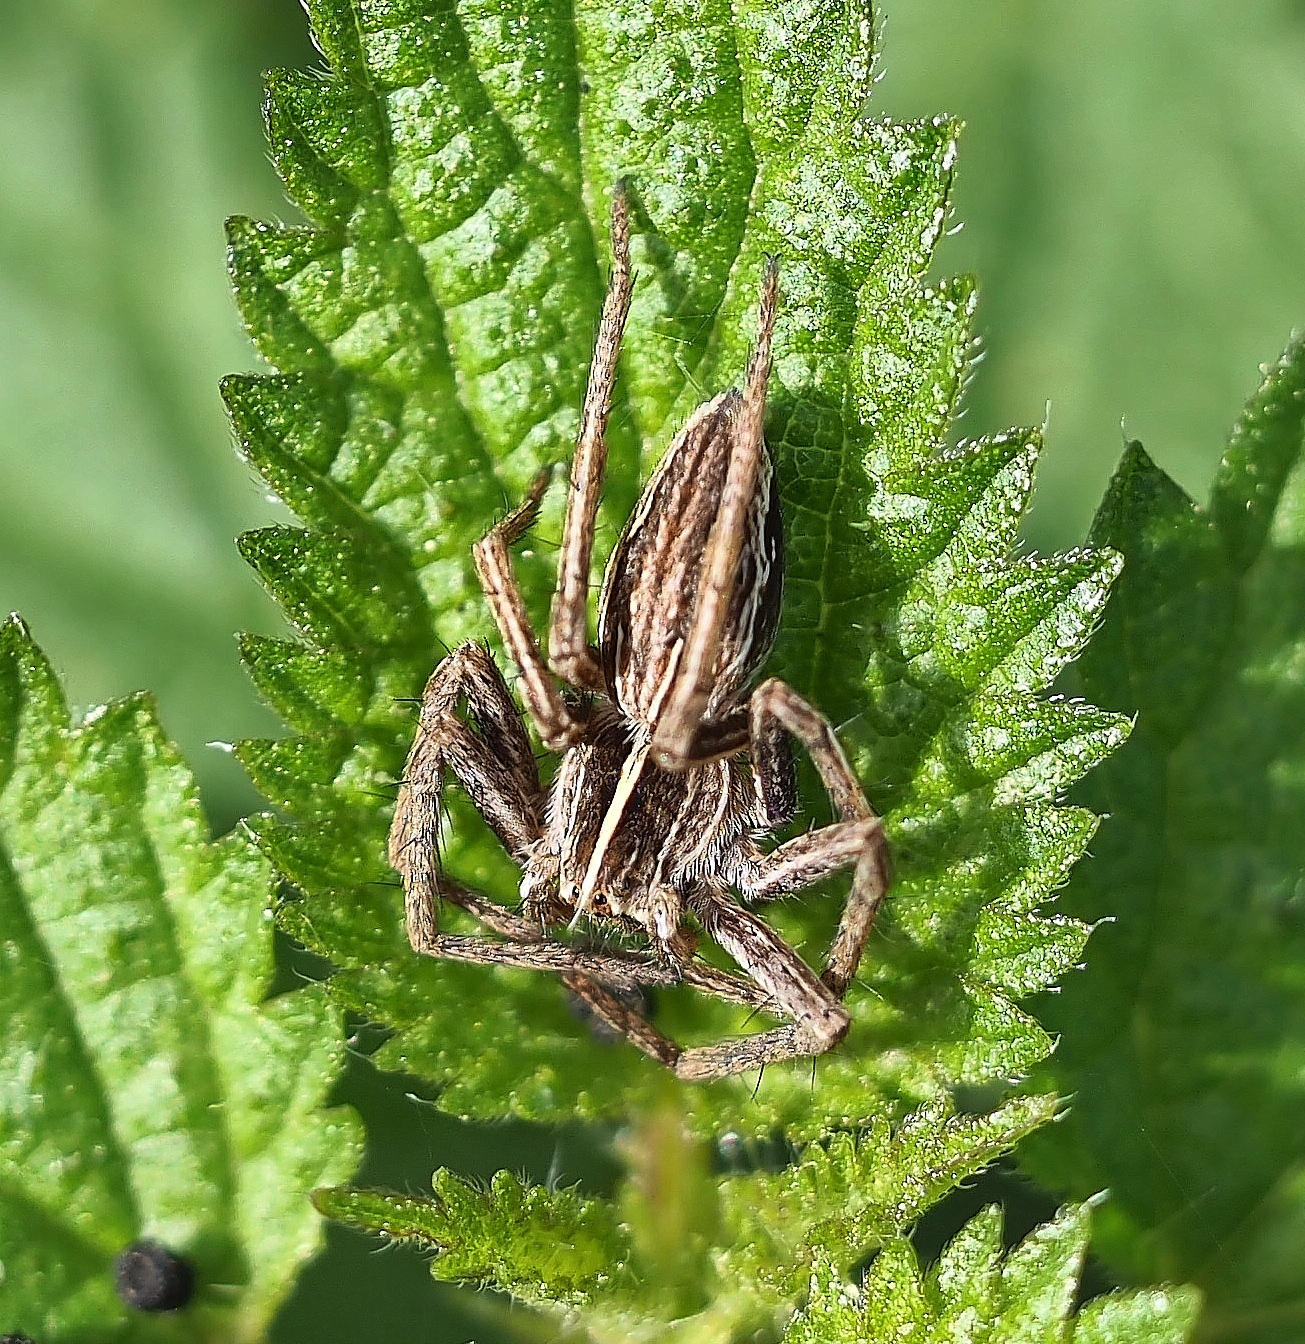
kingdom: Animalia
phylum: Arthropoda
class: Arachnida
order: Araneae
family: Pisauridae
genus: Pisaura
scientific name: Pisaura mirabilis
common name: Tent spider
